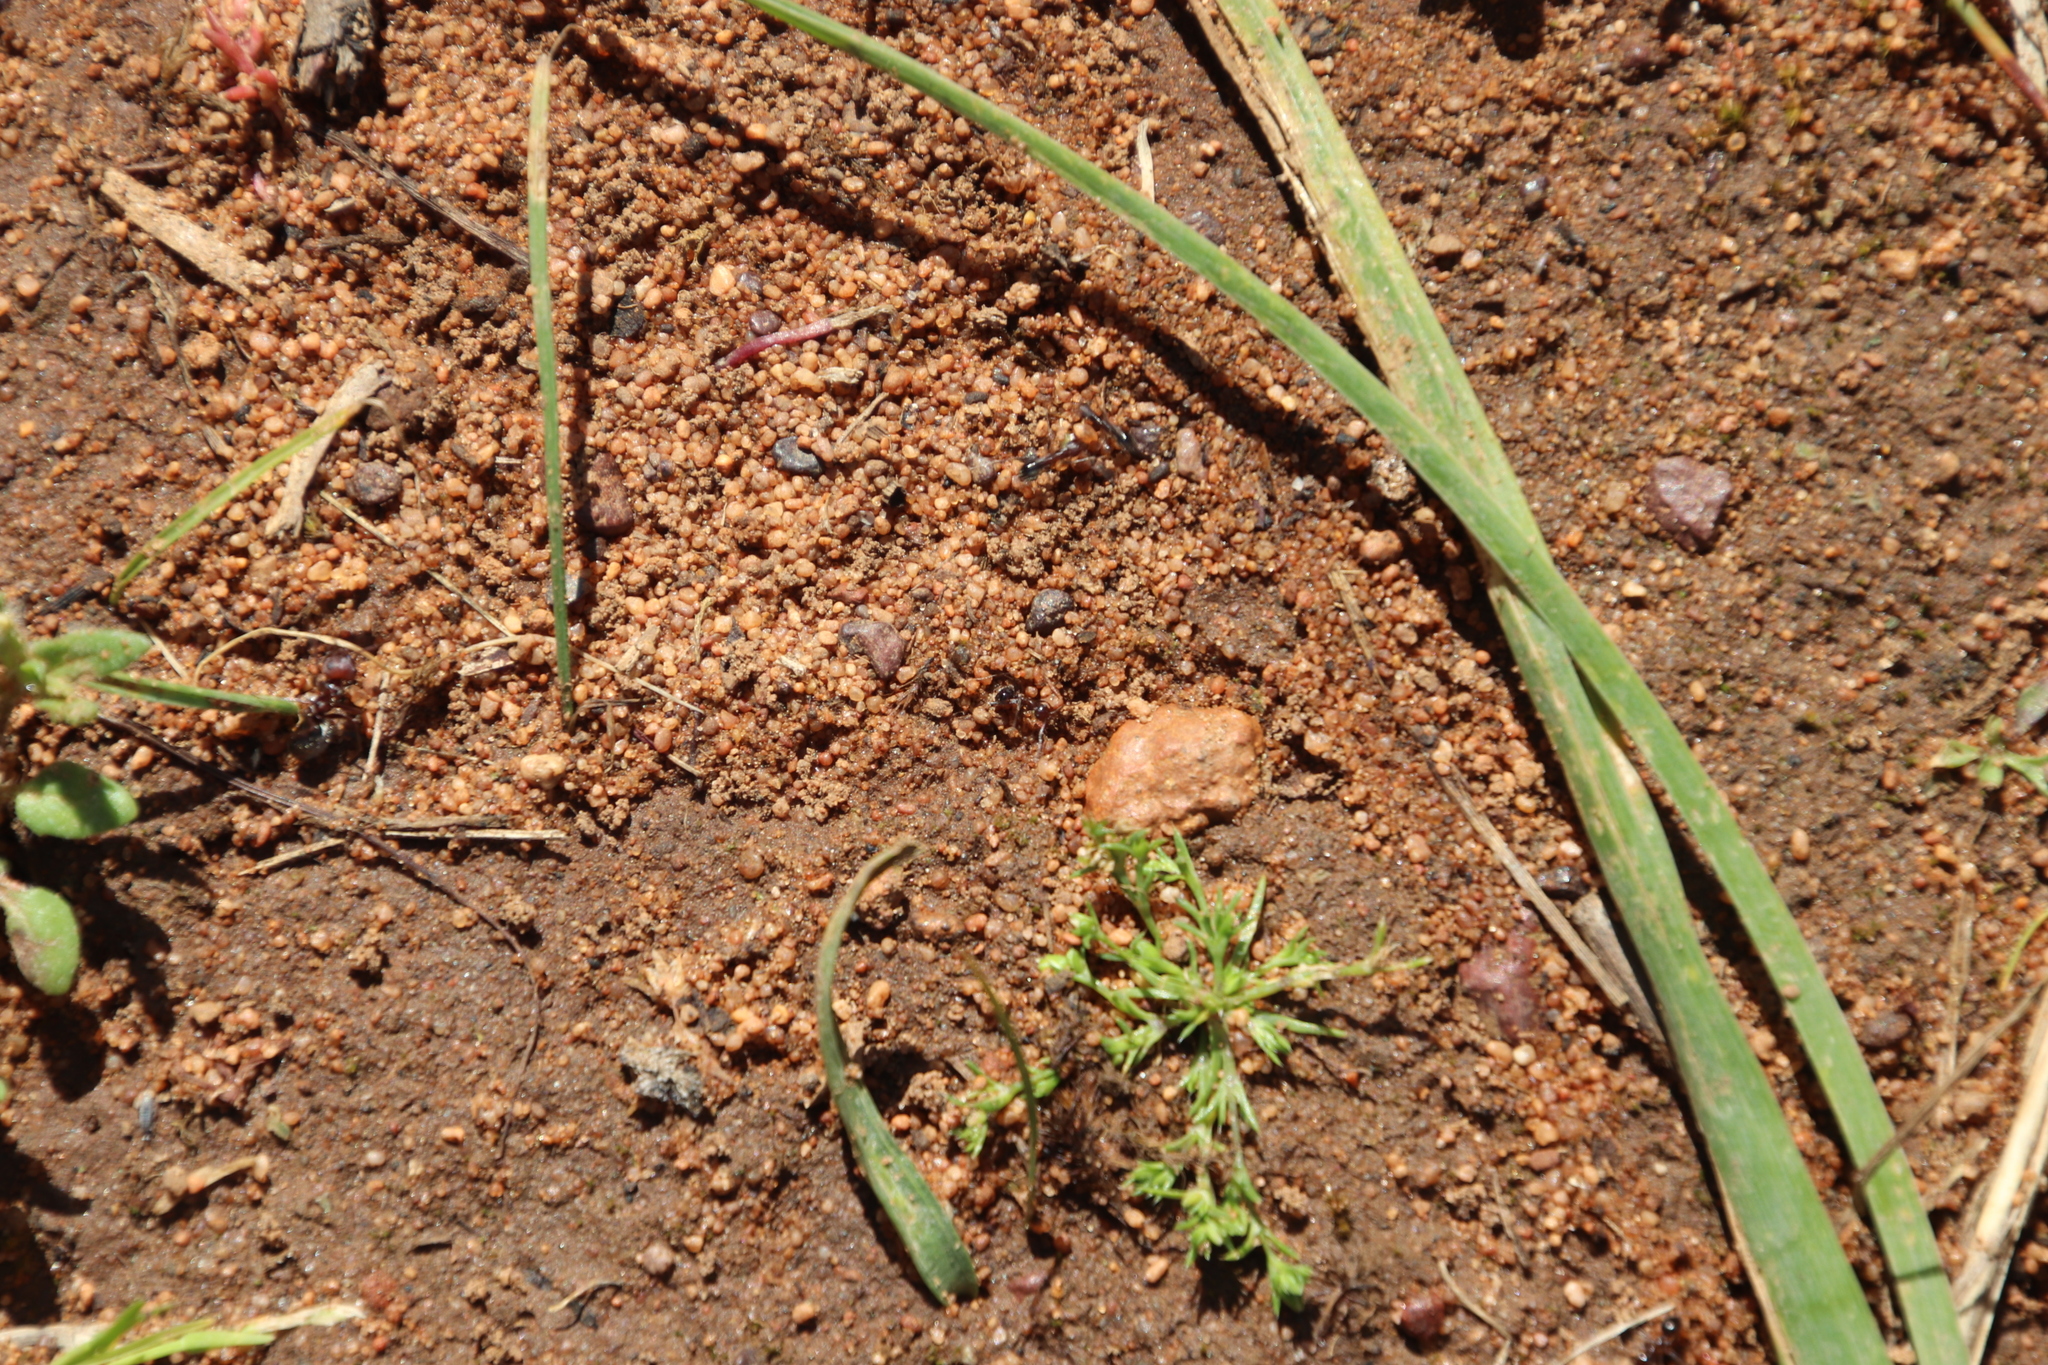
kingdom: Animalia
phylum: Arthropoda
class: Insecta
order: Hymenoptera
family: Formicidae
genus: Anoplolepis
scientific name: Anoplolepis steingroeveri
